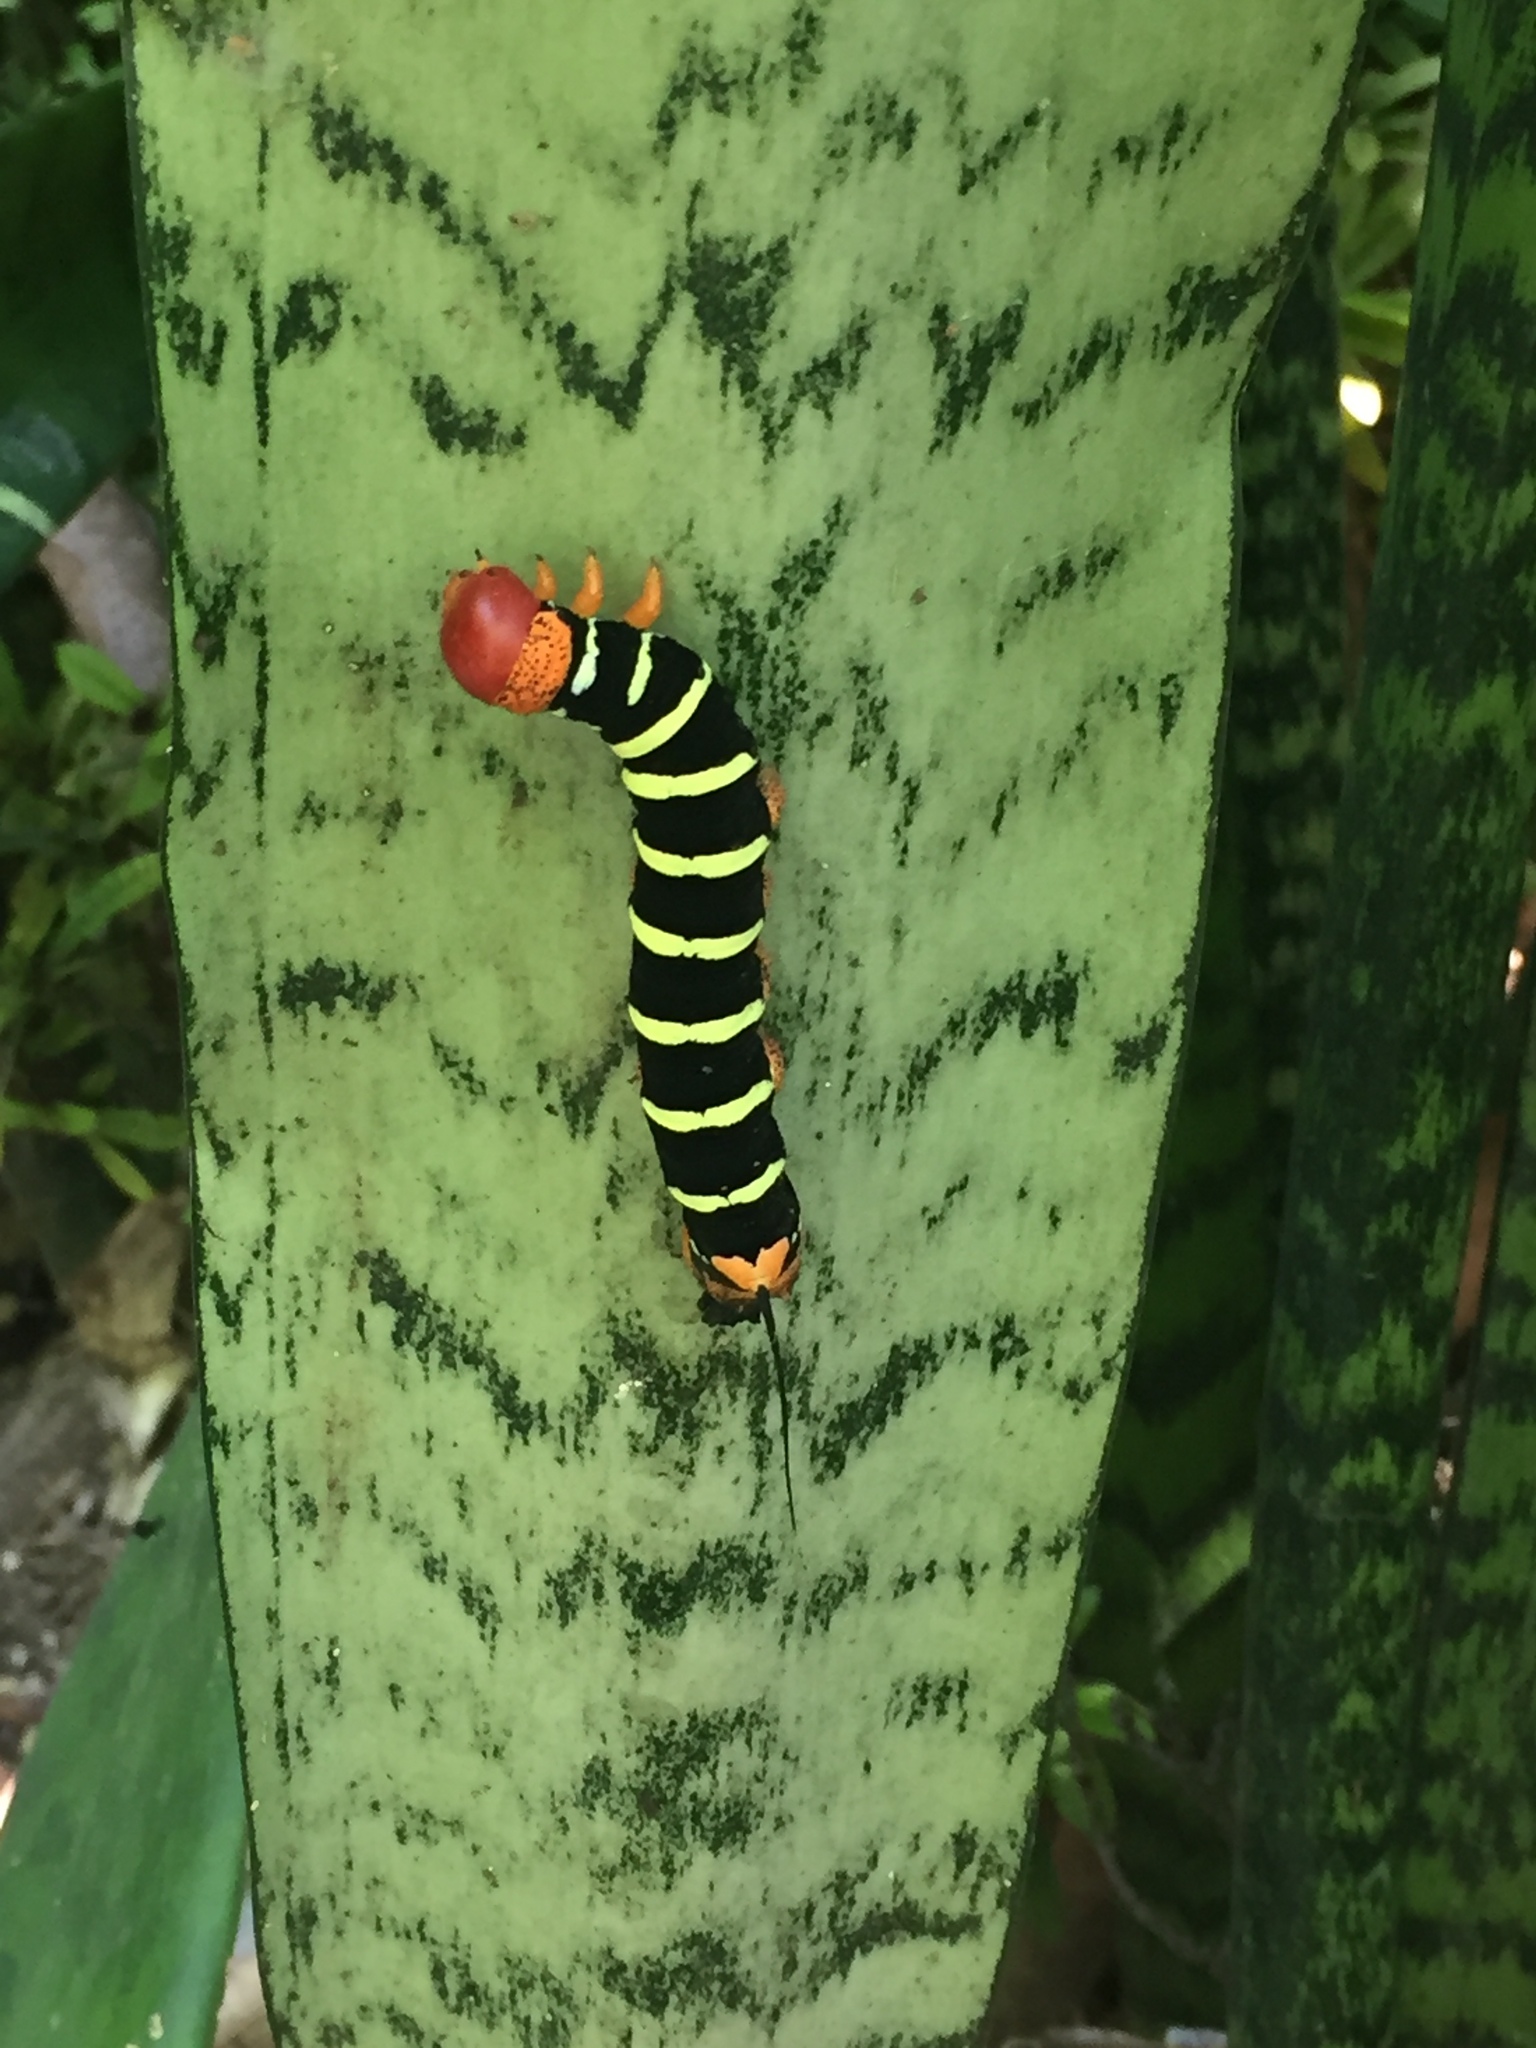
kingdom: Animalia
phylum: Arthropoda
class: Insecta
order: Lepidoptera
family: Sphingidae
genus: Pseudosphinx
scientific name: Pseudosphinx tetrio
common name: Tetrio sphinx
